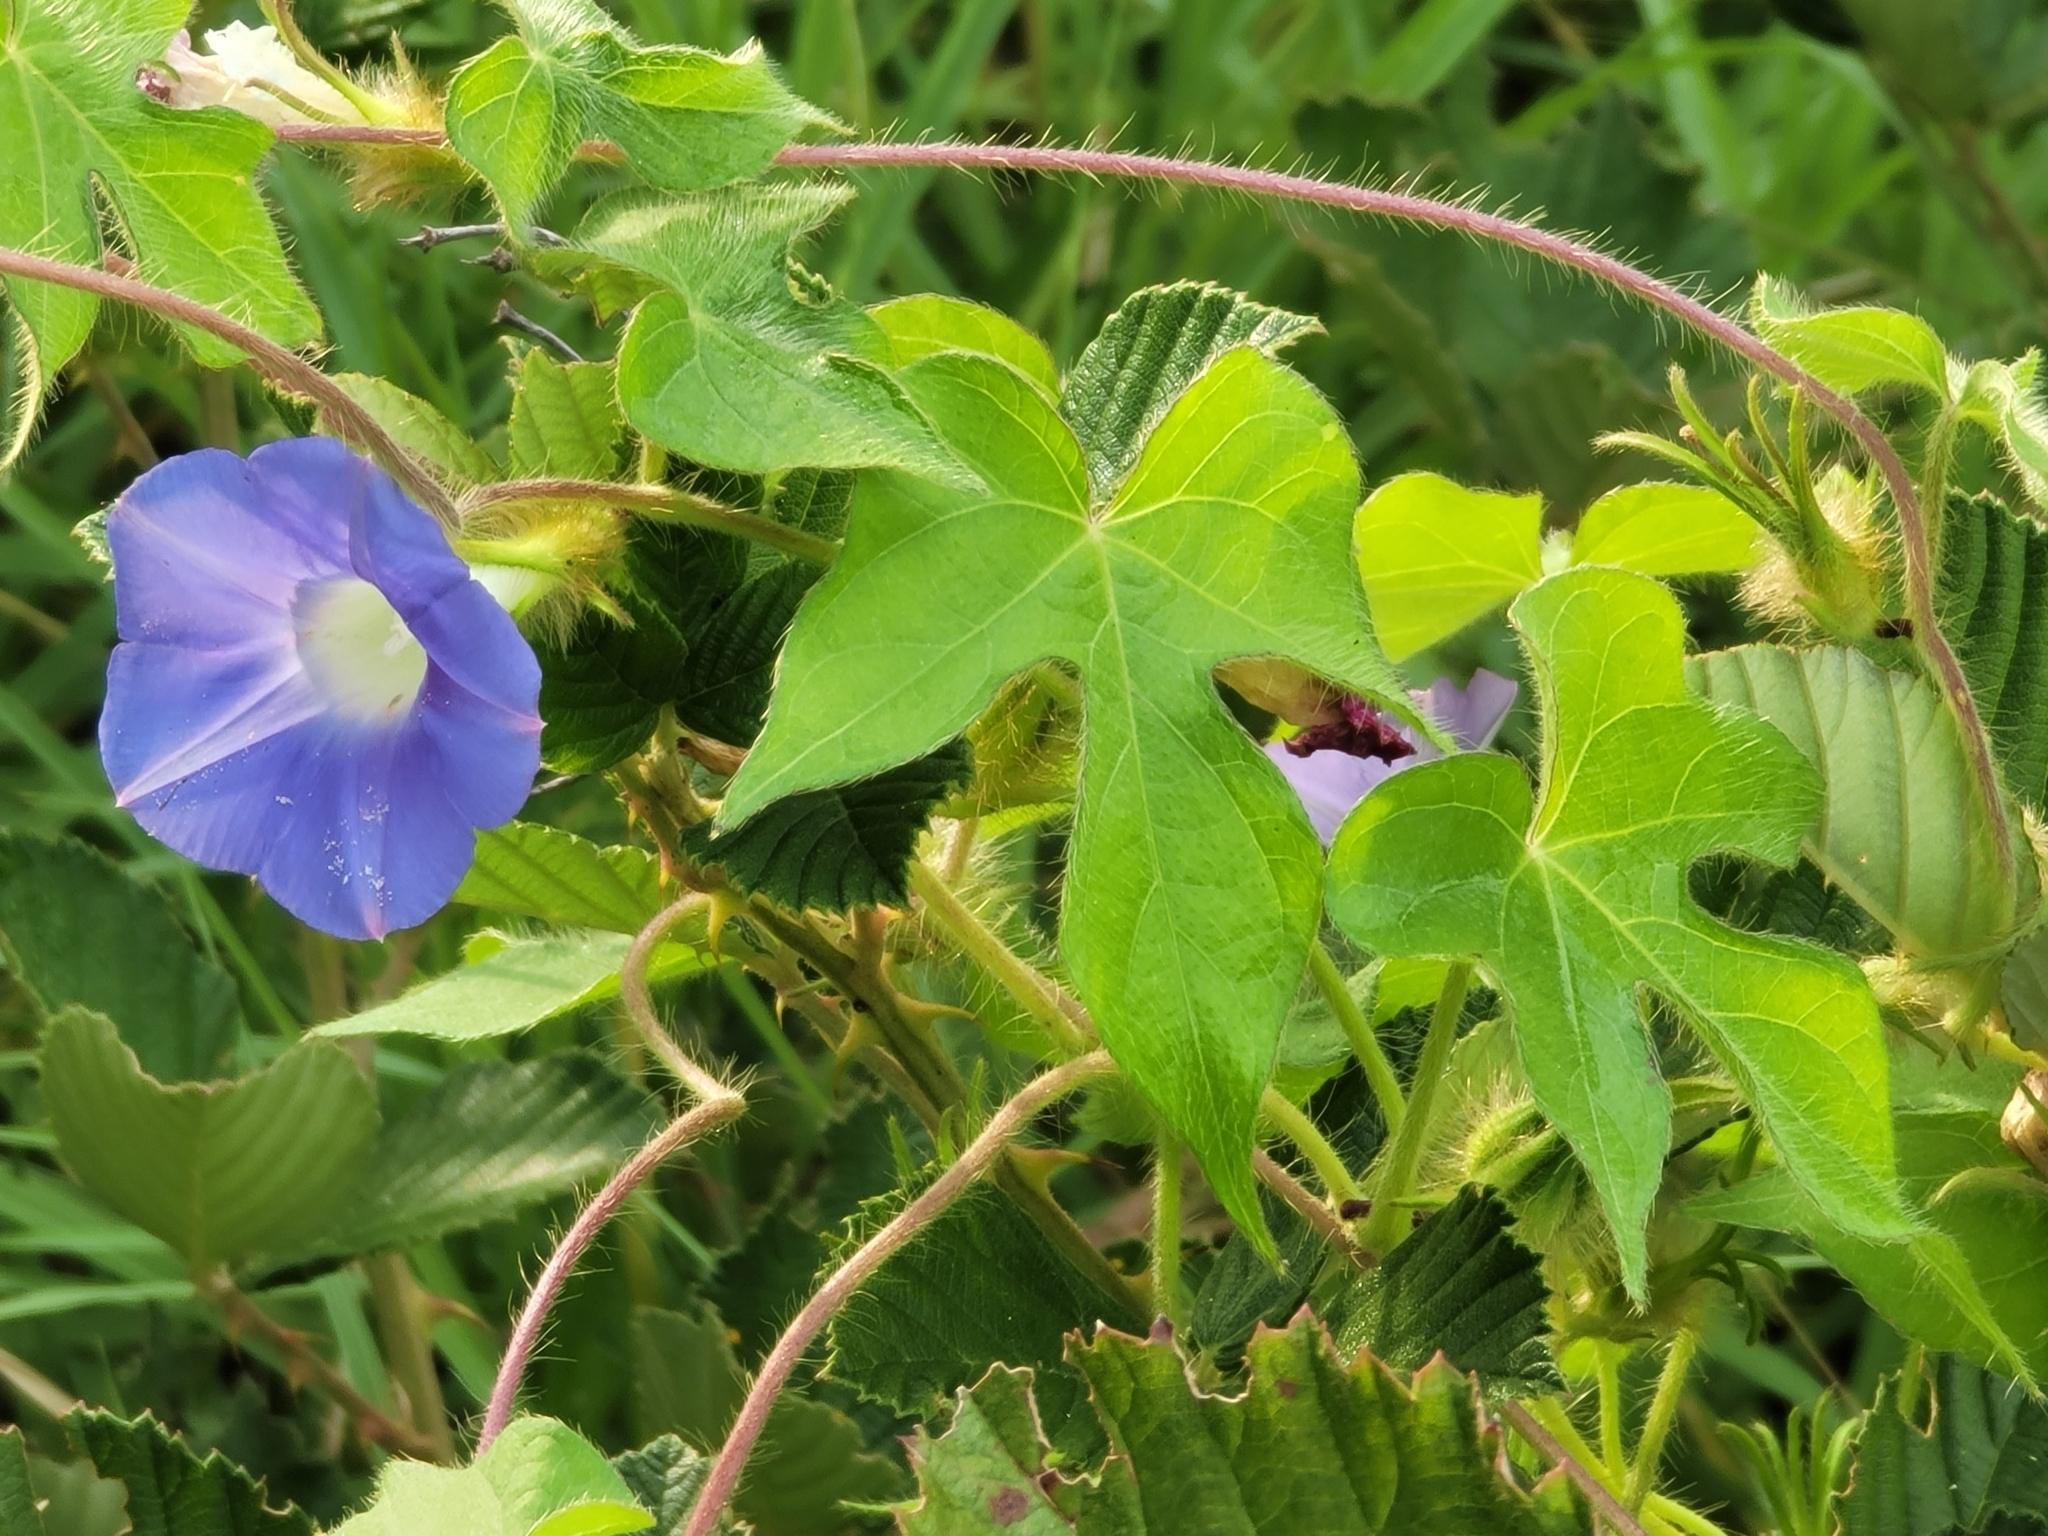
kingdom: Plantae
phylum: Tracheophyta
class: Magnoliopsida
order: Solanales
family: Convolvulaceae
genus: Ipomoea
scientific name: Ipomoea hederacea
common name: Ivy-leaved morning-glory
